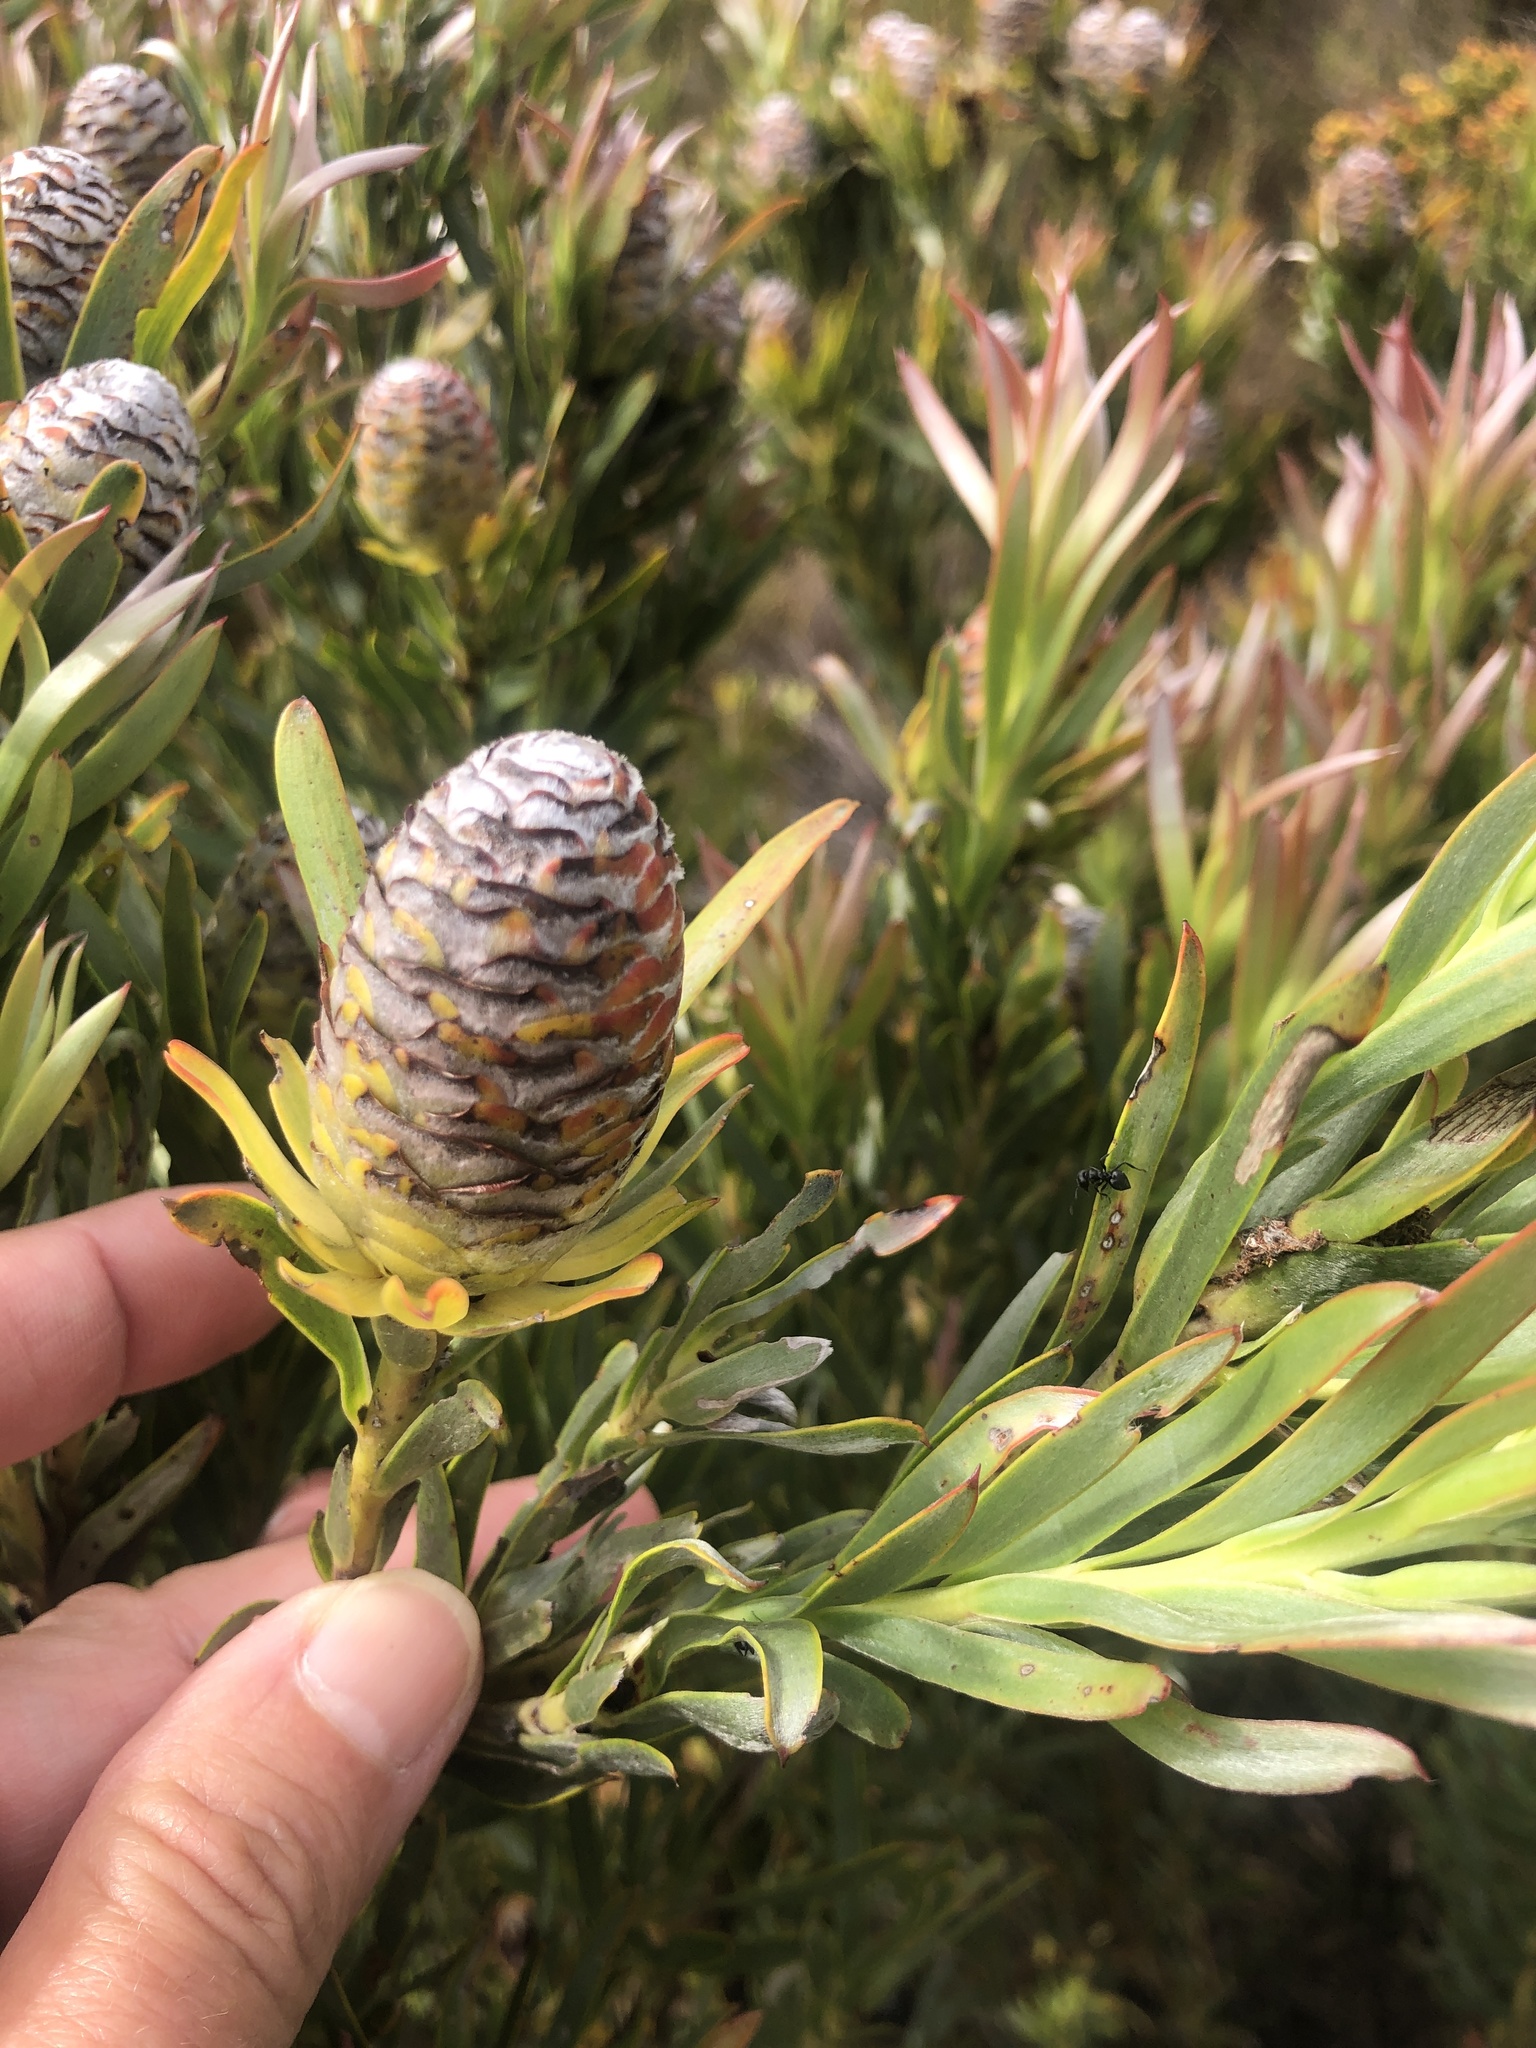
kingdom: Plantae
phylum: Tracheophyta
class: Magnoliopsida
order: Proteales
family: Proteaceae
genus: Leucadendron
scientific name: Leucadendron xanthoconus
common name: Sickle-leaf conebush
